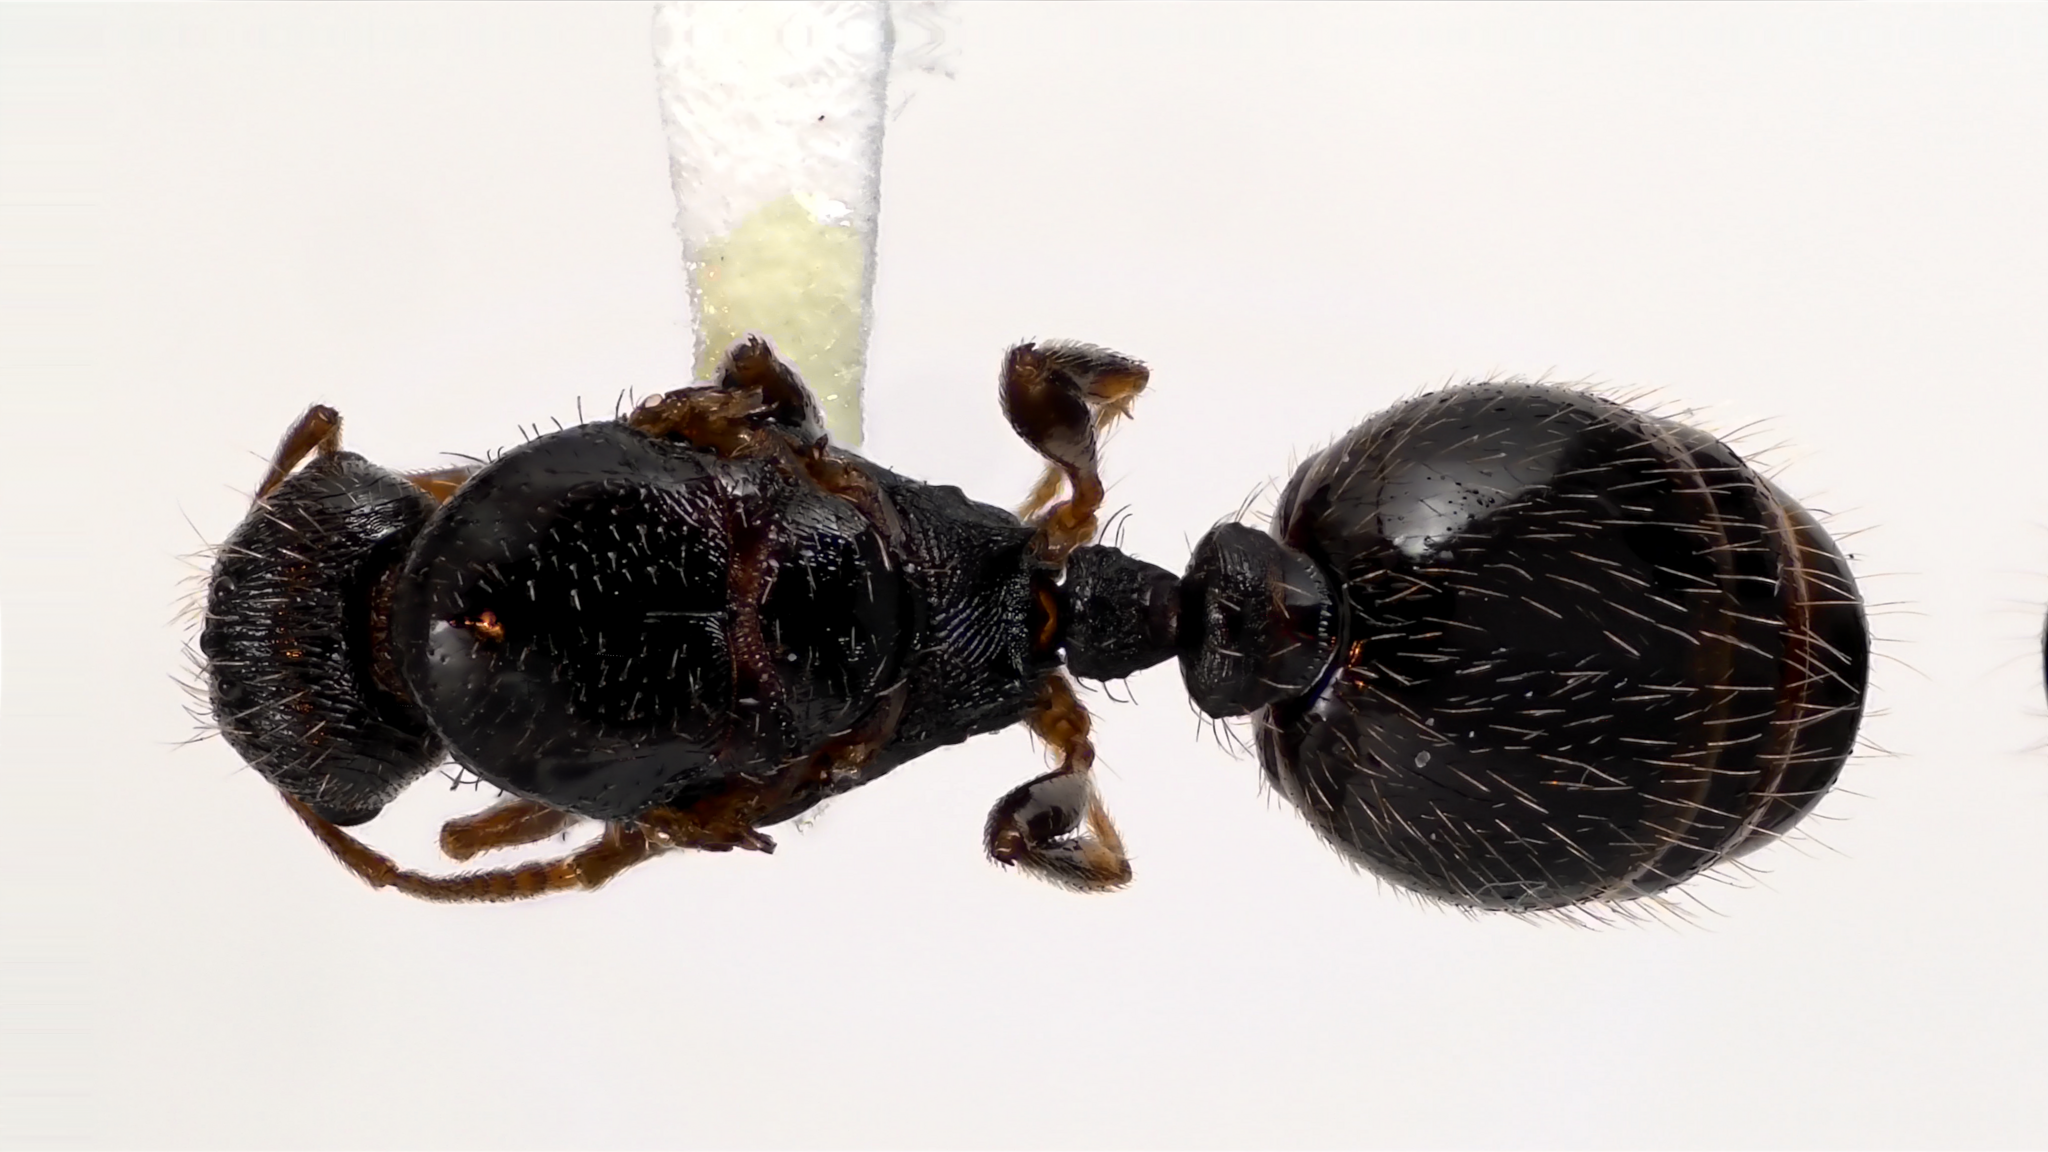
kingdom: Animalia
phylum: Arthropoda
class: Insecta
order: Hymenoptera
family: Formicidae
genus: Tetramorium
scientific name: Tetramorium immigrans
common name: Pavement ant
